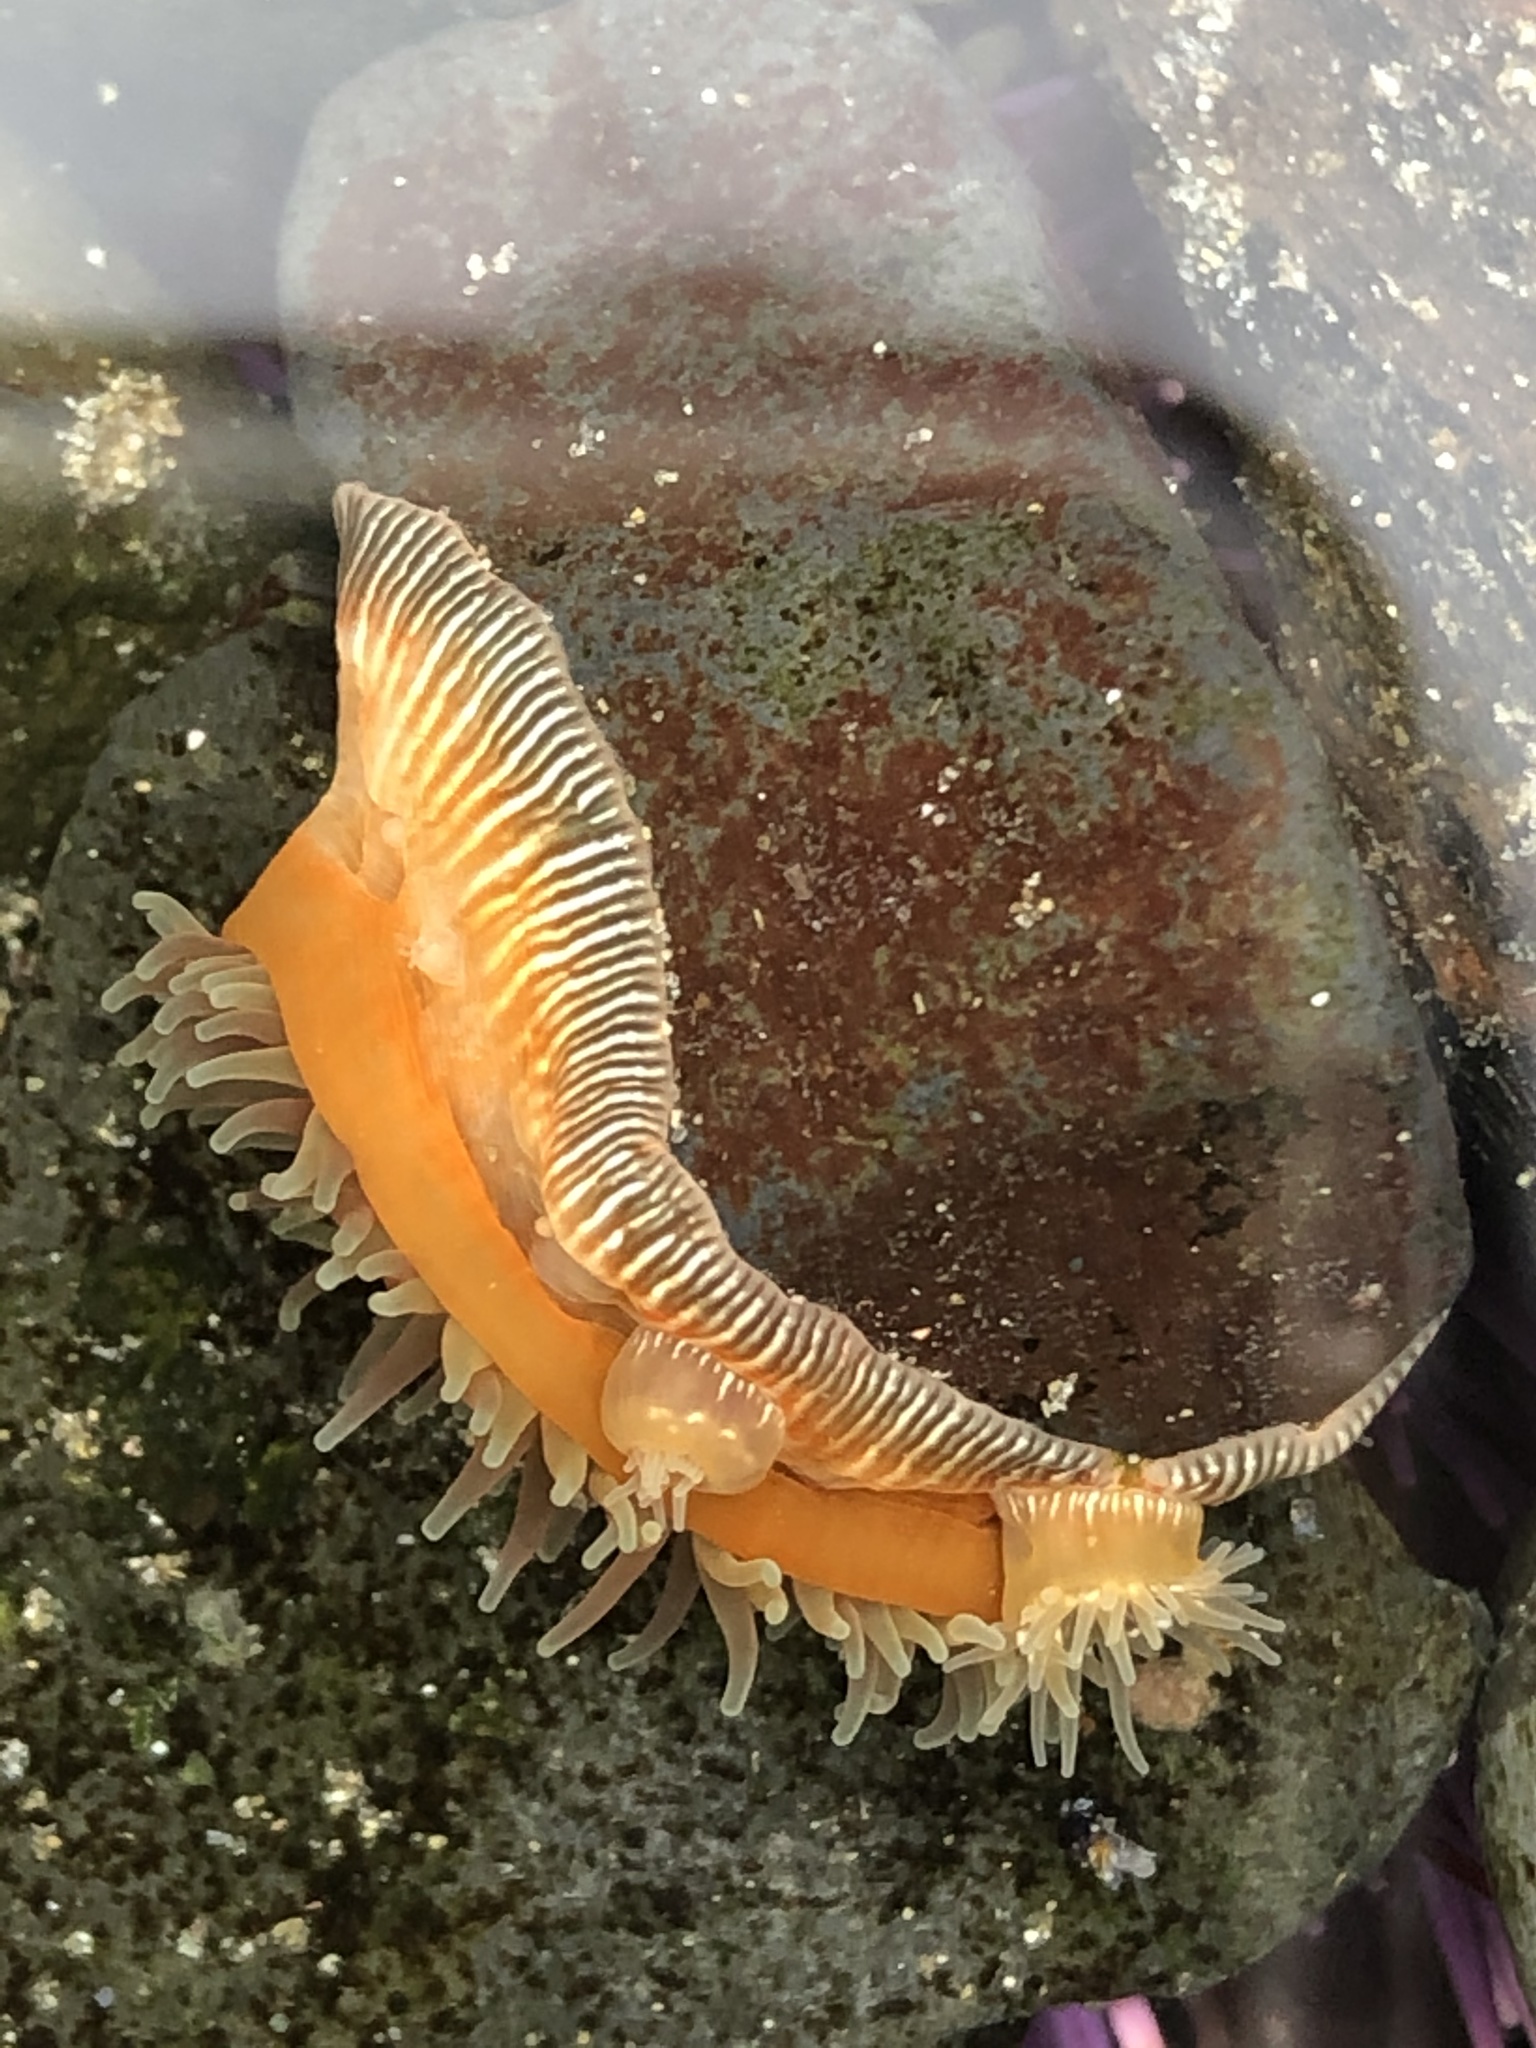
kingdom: Animalia
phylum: Cnidaria
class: Anthozoa
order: Actiniaria
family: Actiniidae
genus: Epiactis
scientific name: Epiactis prolifera
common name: Brooding anemone
